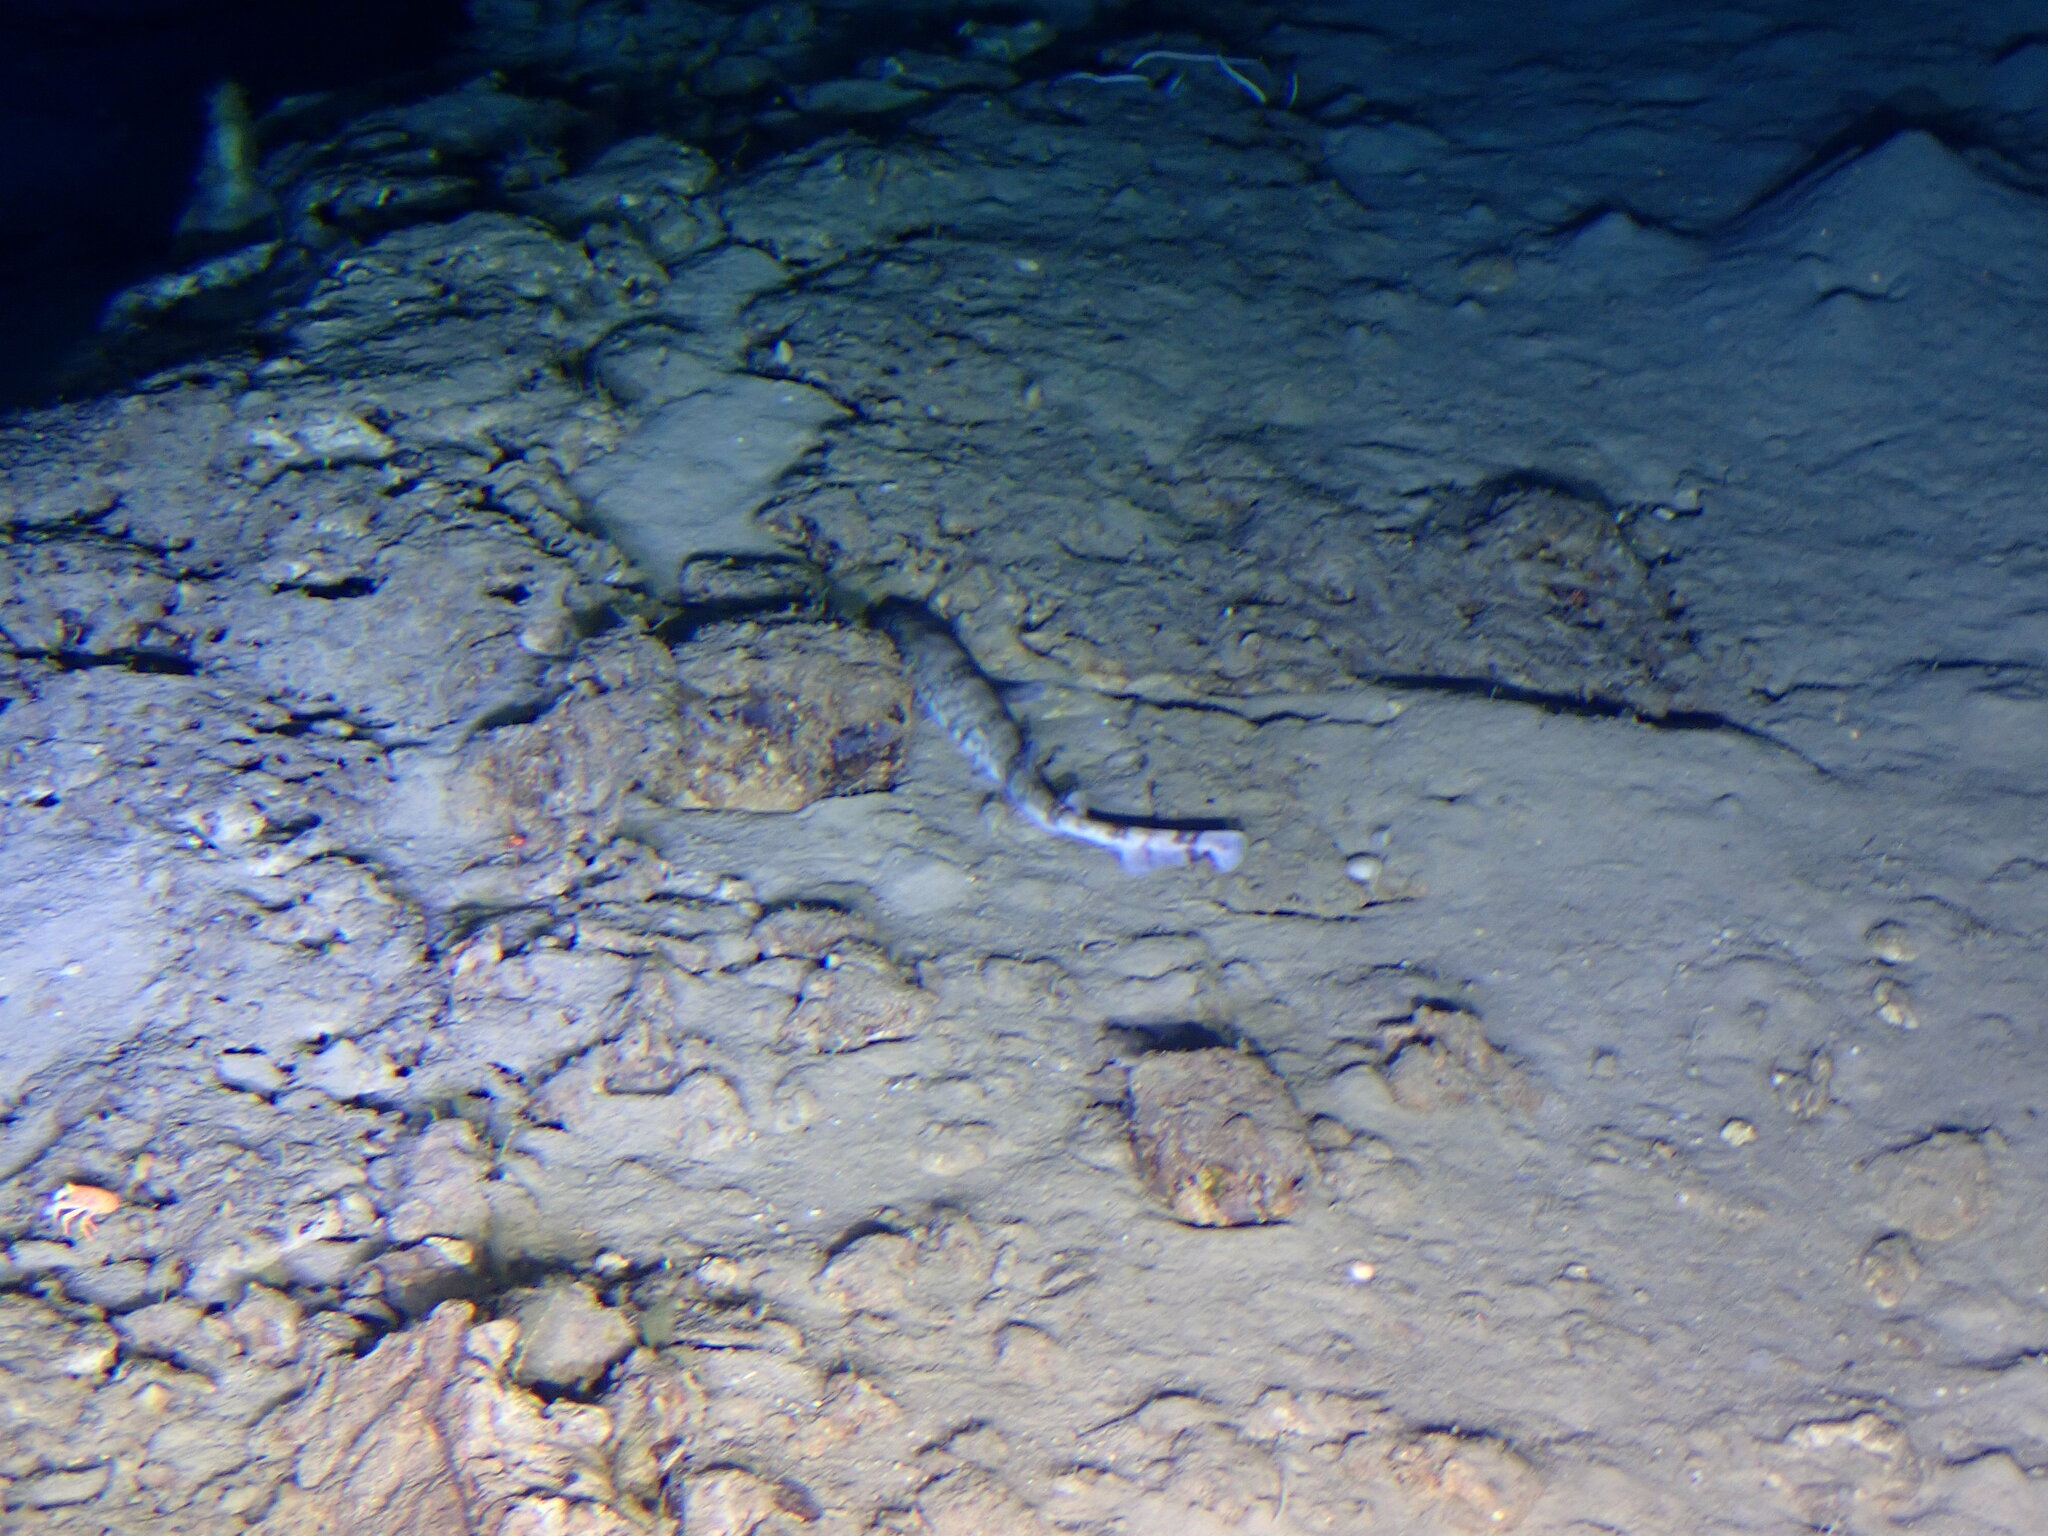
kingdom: Animalia
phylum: Chordata
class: Elasmobranchii
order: Carcharhiniformes
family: Scyliorhinidae
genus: Scyliorhinus
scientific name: Scyliorhinus hesperius
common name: Whitesaddled catshark
